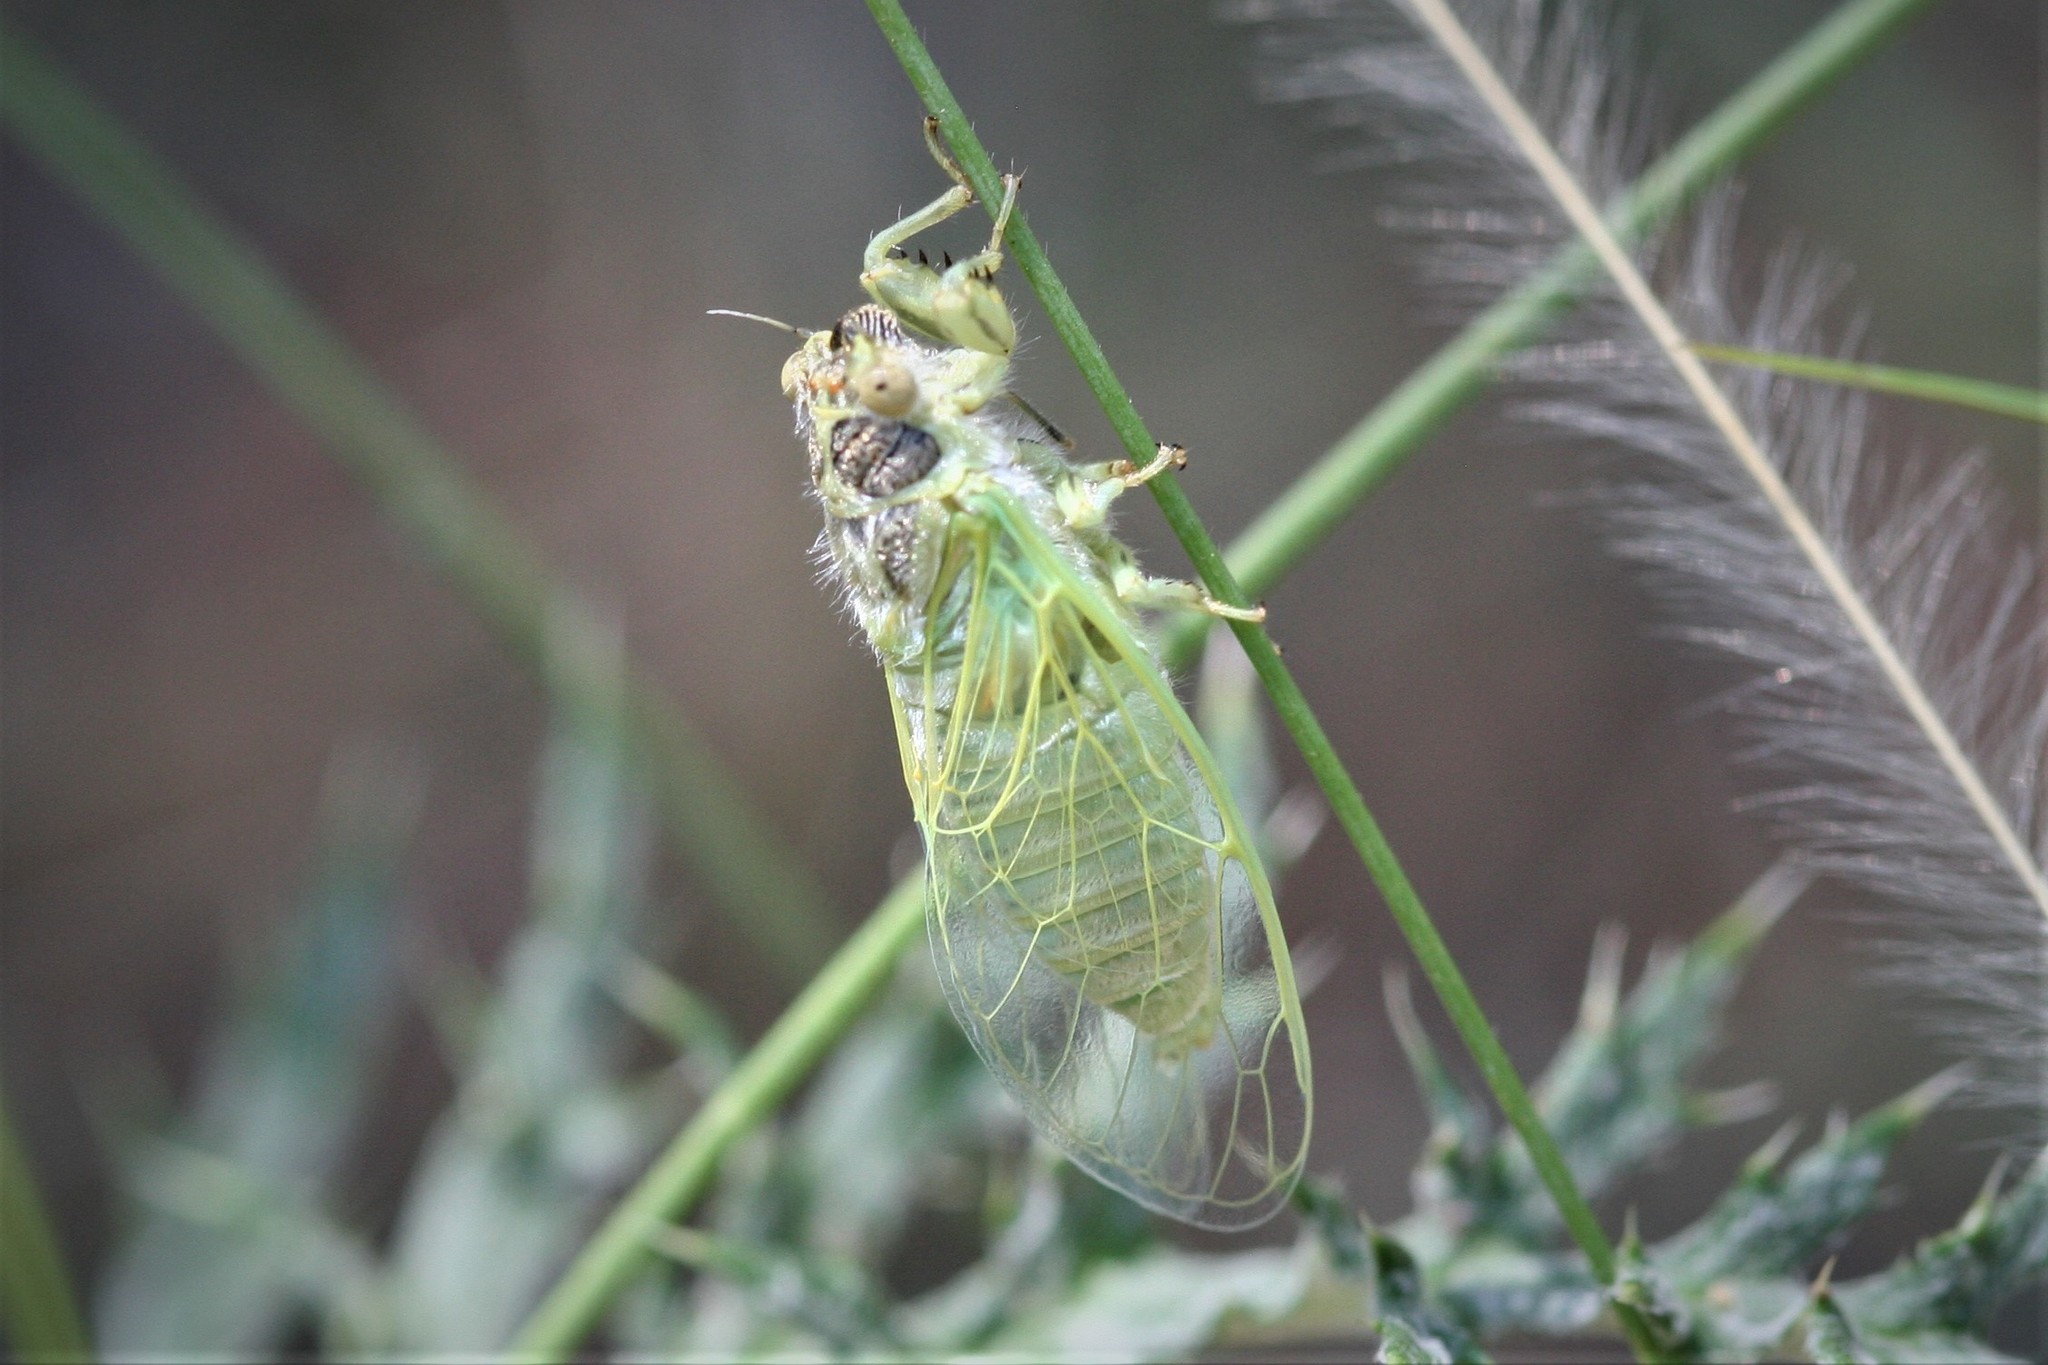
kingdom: Animalia
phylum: Arthropoda
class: Insecta
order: Hemiptera
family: Cicadidae
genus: Oligoglena
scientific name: Oligoglena tibialis
